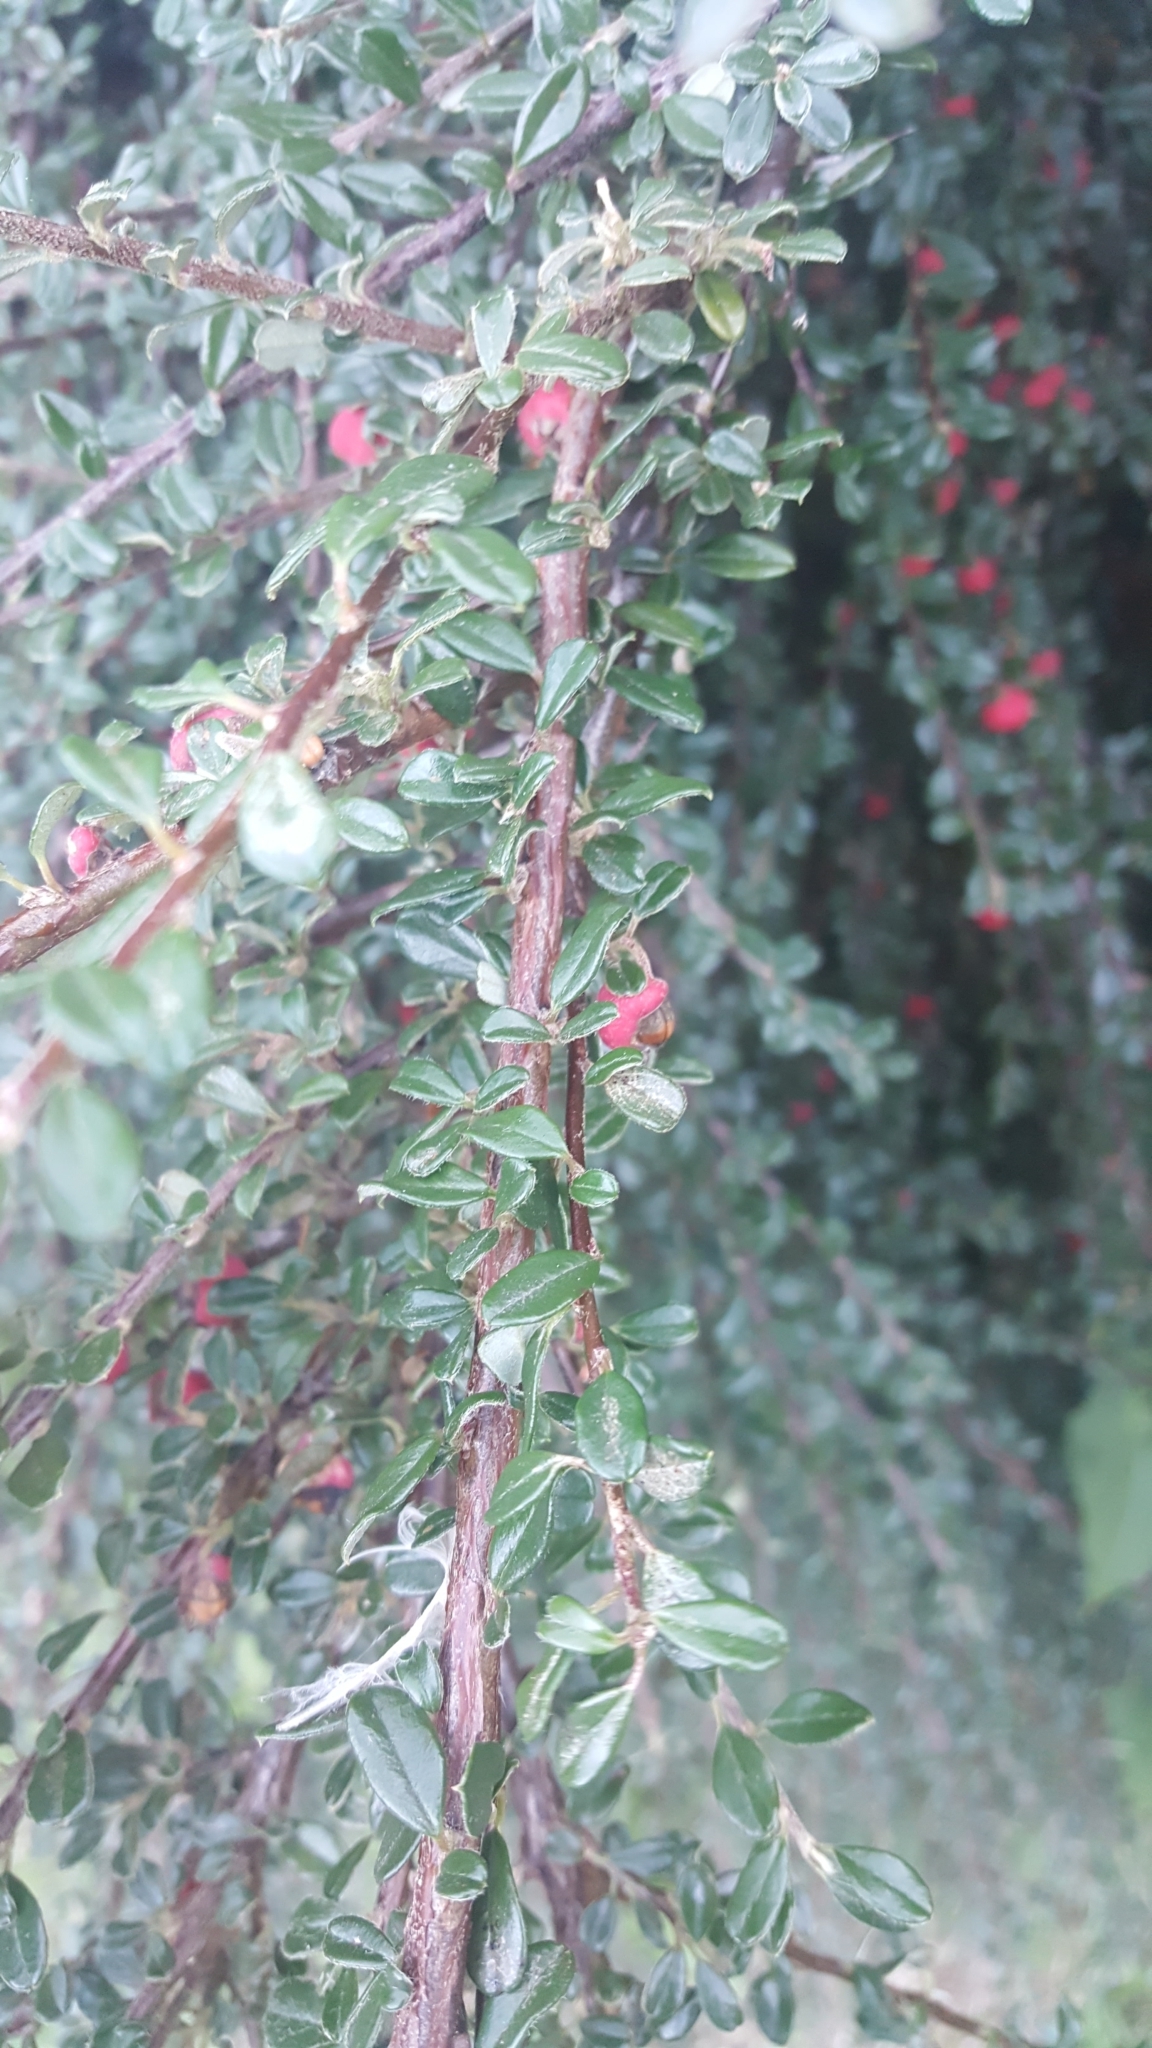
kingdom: Plantae
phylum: Tracheophyta
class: Magnoliopsida
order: Rosales
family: Rosaceae
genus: Cotoneaster
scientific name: Cotoneaster microphyllus
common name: Small-leaved cotoneaster
